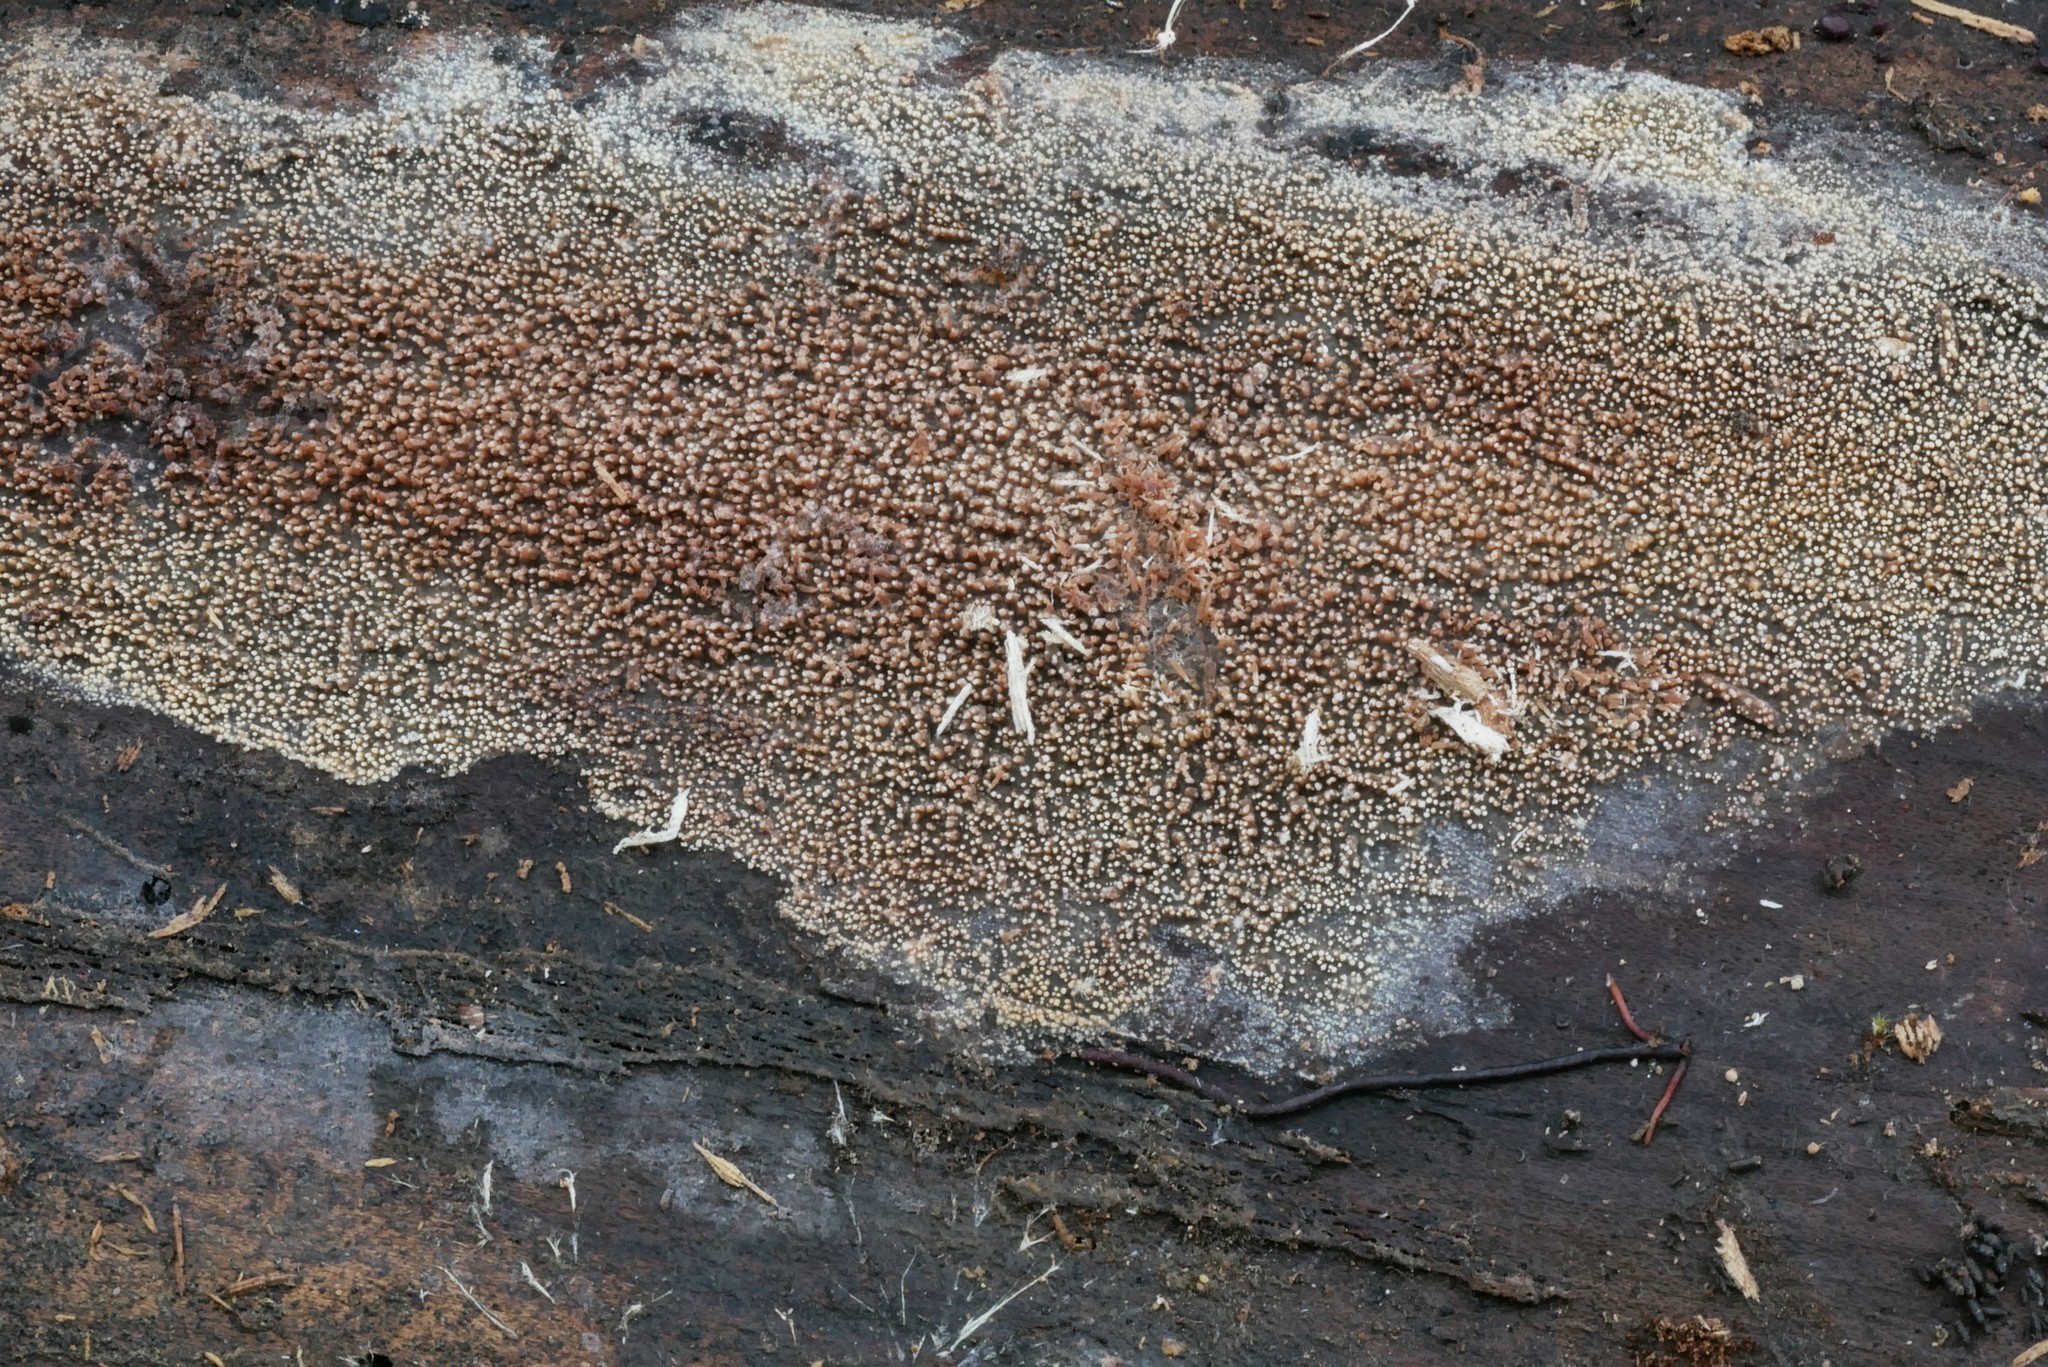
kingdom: Fungi
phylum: Basidiomycota
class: Agaricomycetes
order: Polyporales
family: Meruliaceae
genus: Mycoacia
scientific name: Mycoacia fuscoatra
